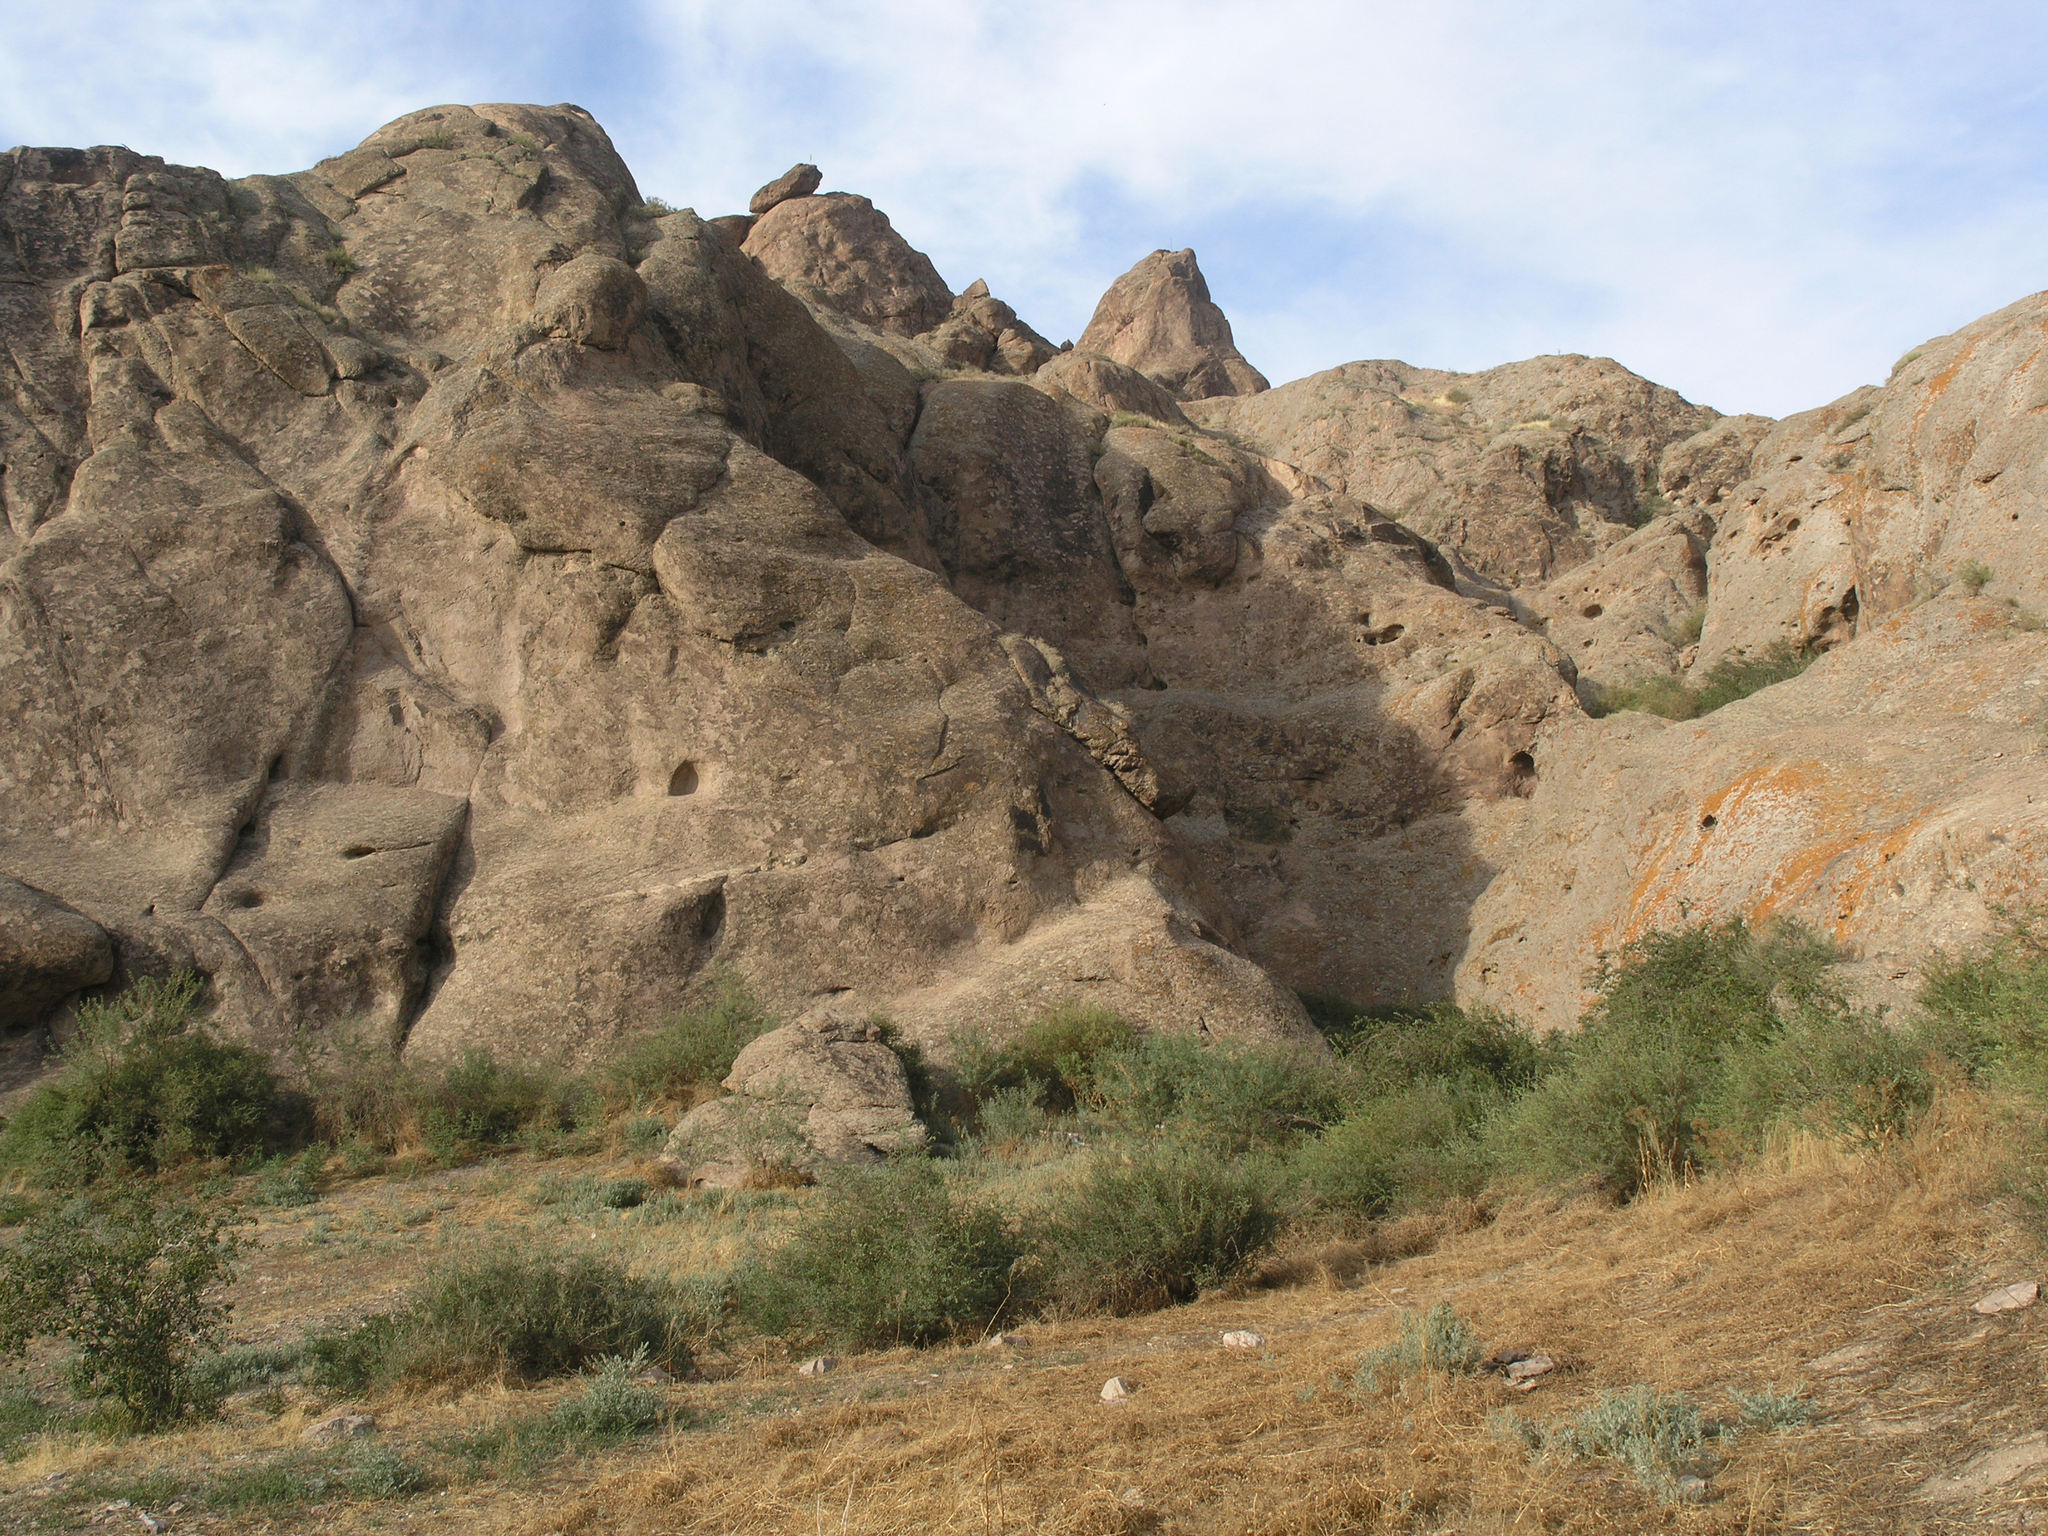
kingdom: Plantae
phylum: Tracheophyta
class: Magnoliopsida
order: Rosales
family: Rosaceae
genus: Spiraea
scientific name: Spiraea hypericifolia
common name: Iberian spirea
